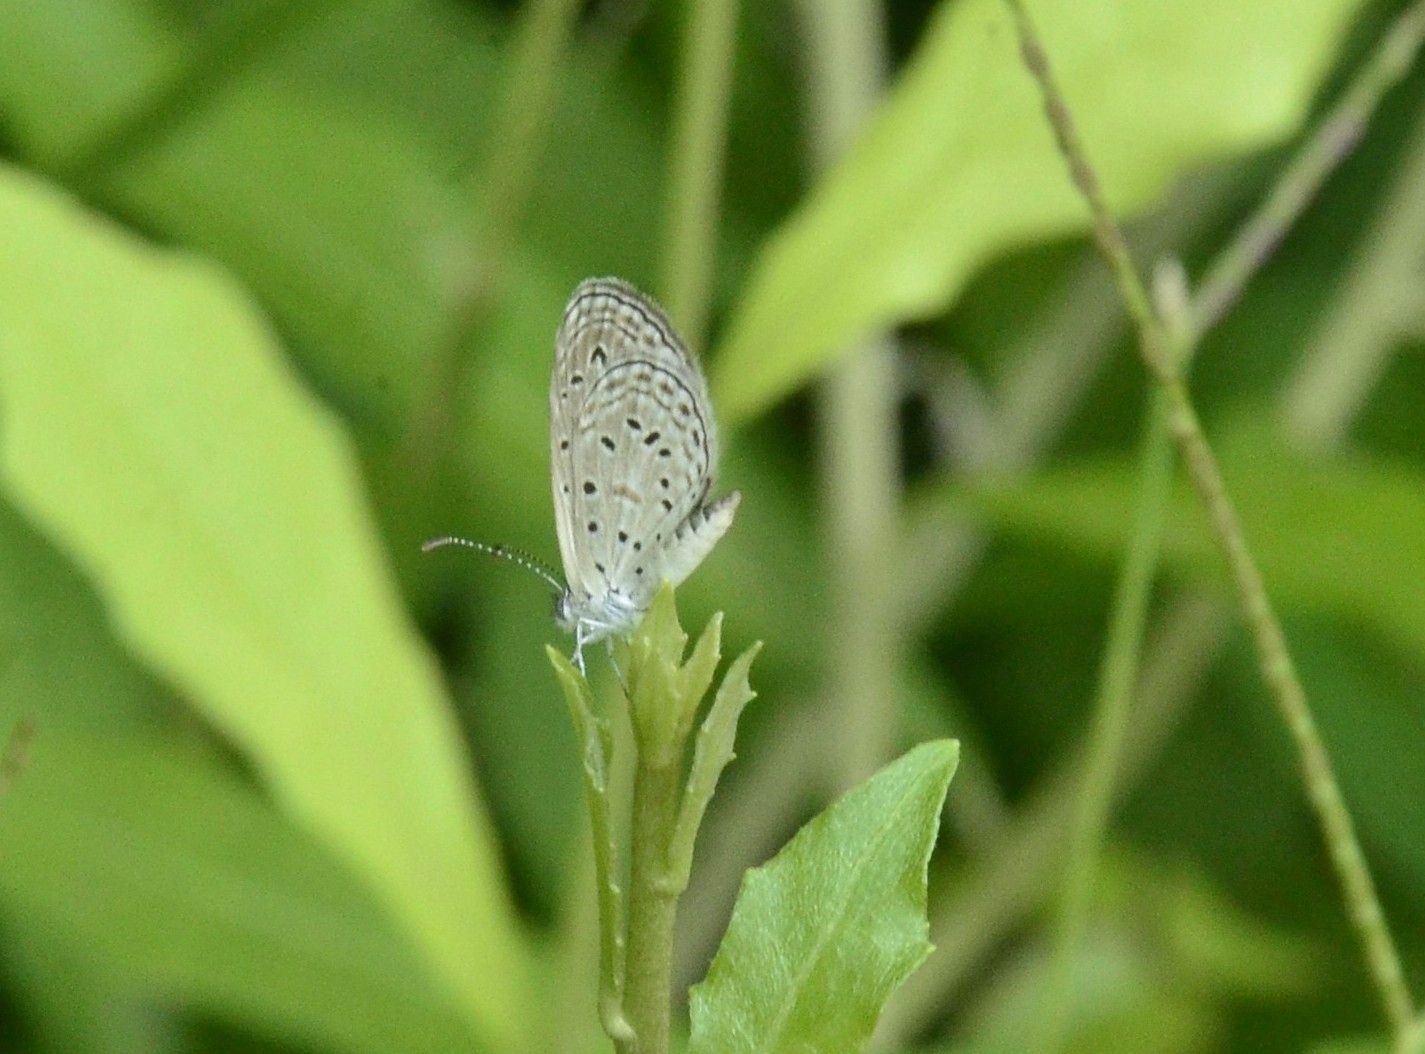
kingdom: Animalia
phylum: Arthropoda
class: Insecta
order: Lepidoptera
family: Lycaenidae
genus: Zizula
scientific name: Zizula hylax
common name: Gaika blue
